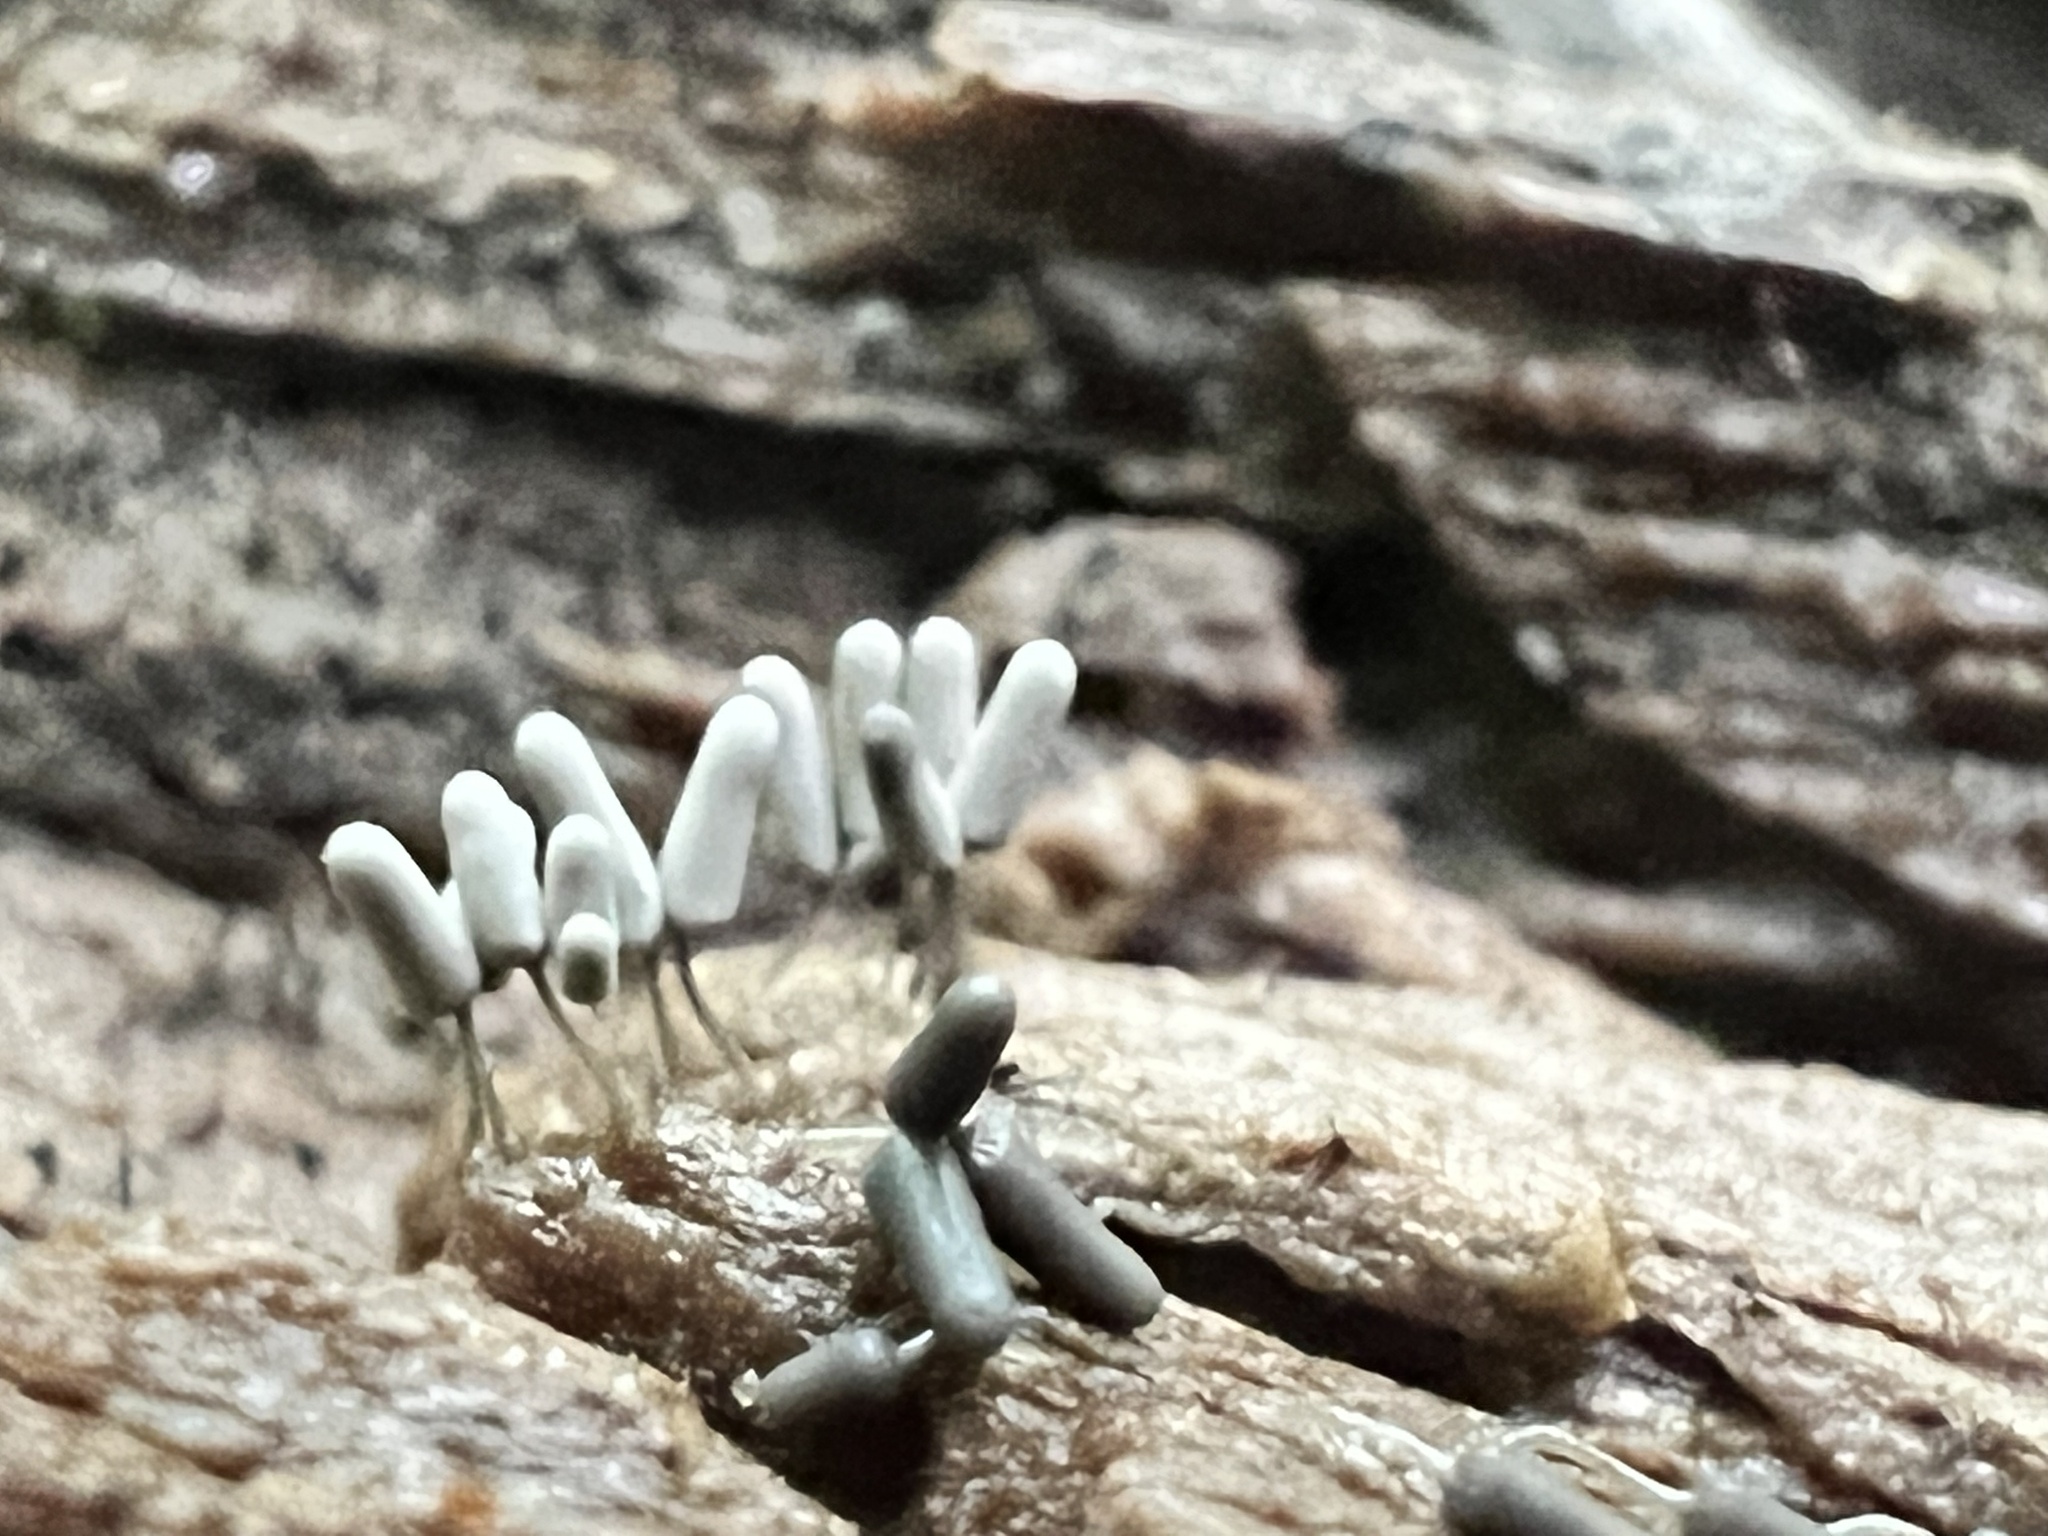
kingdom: Protozoa
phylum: Mycetozoa
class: Myxomycetes
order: Trichiales
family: Arcyriaceae
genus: Arcyria
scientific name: Arcyria cinerea
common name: White carnival candy slime mold
